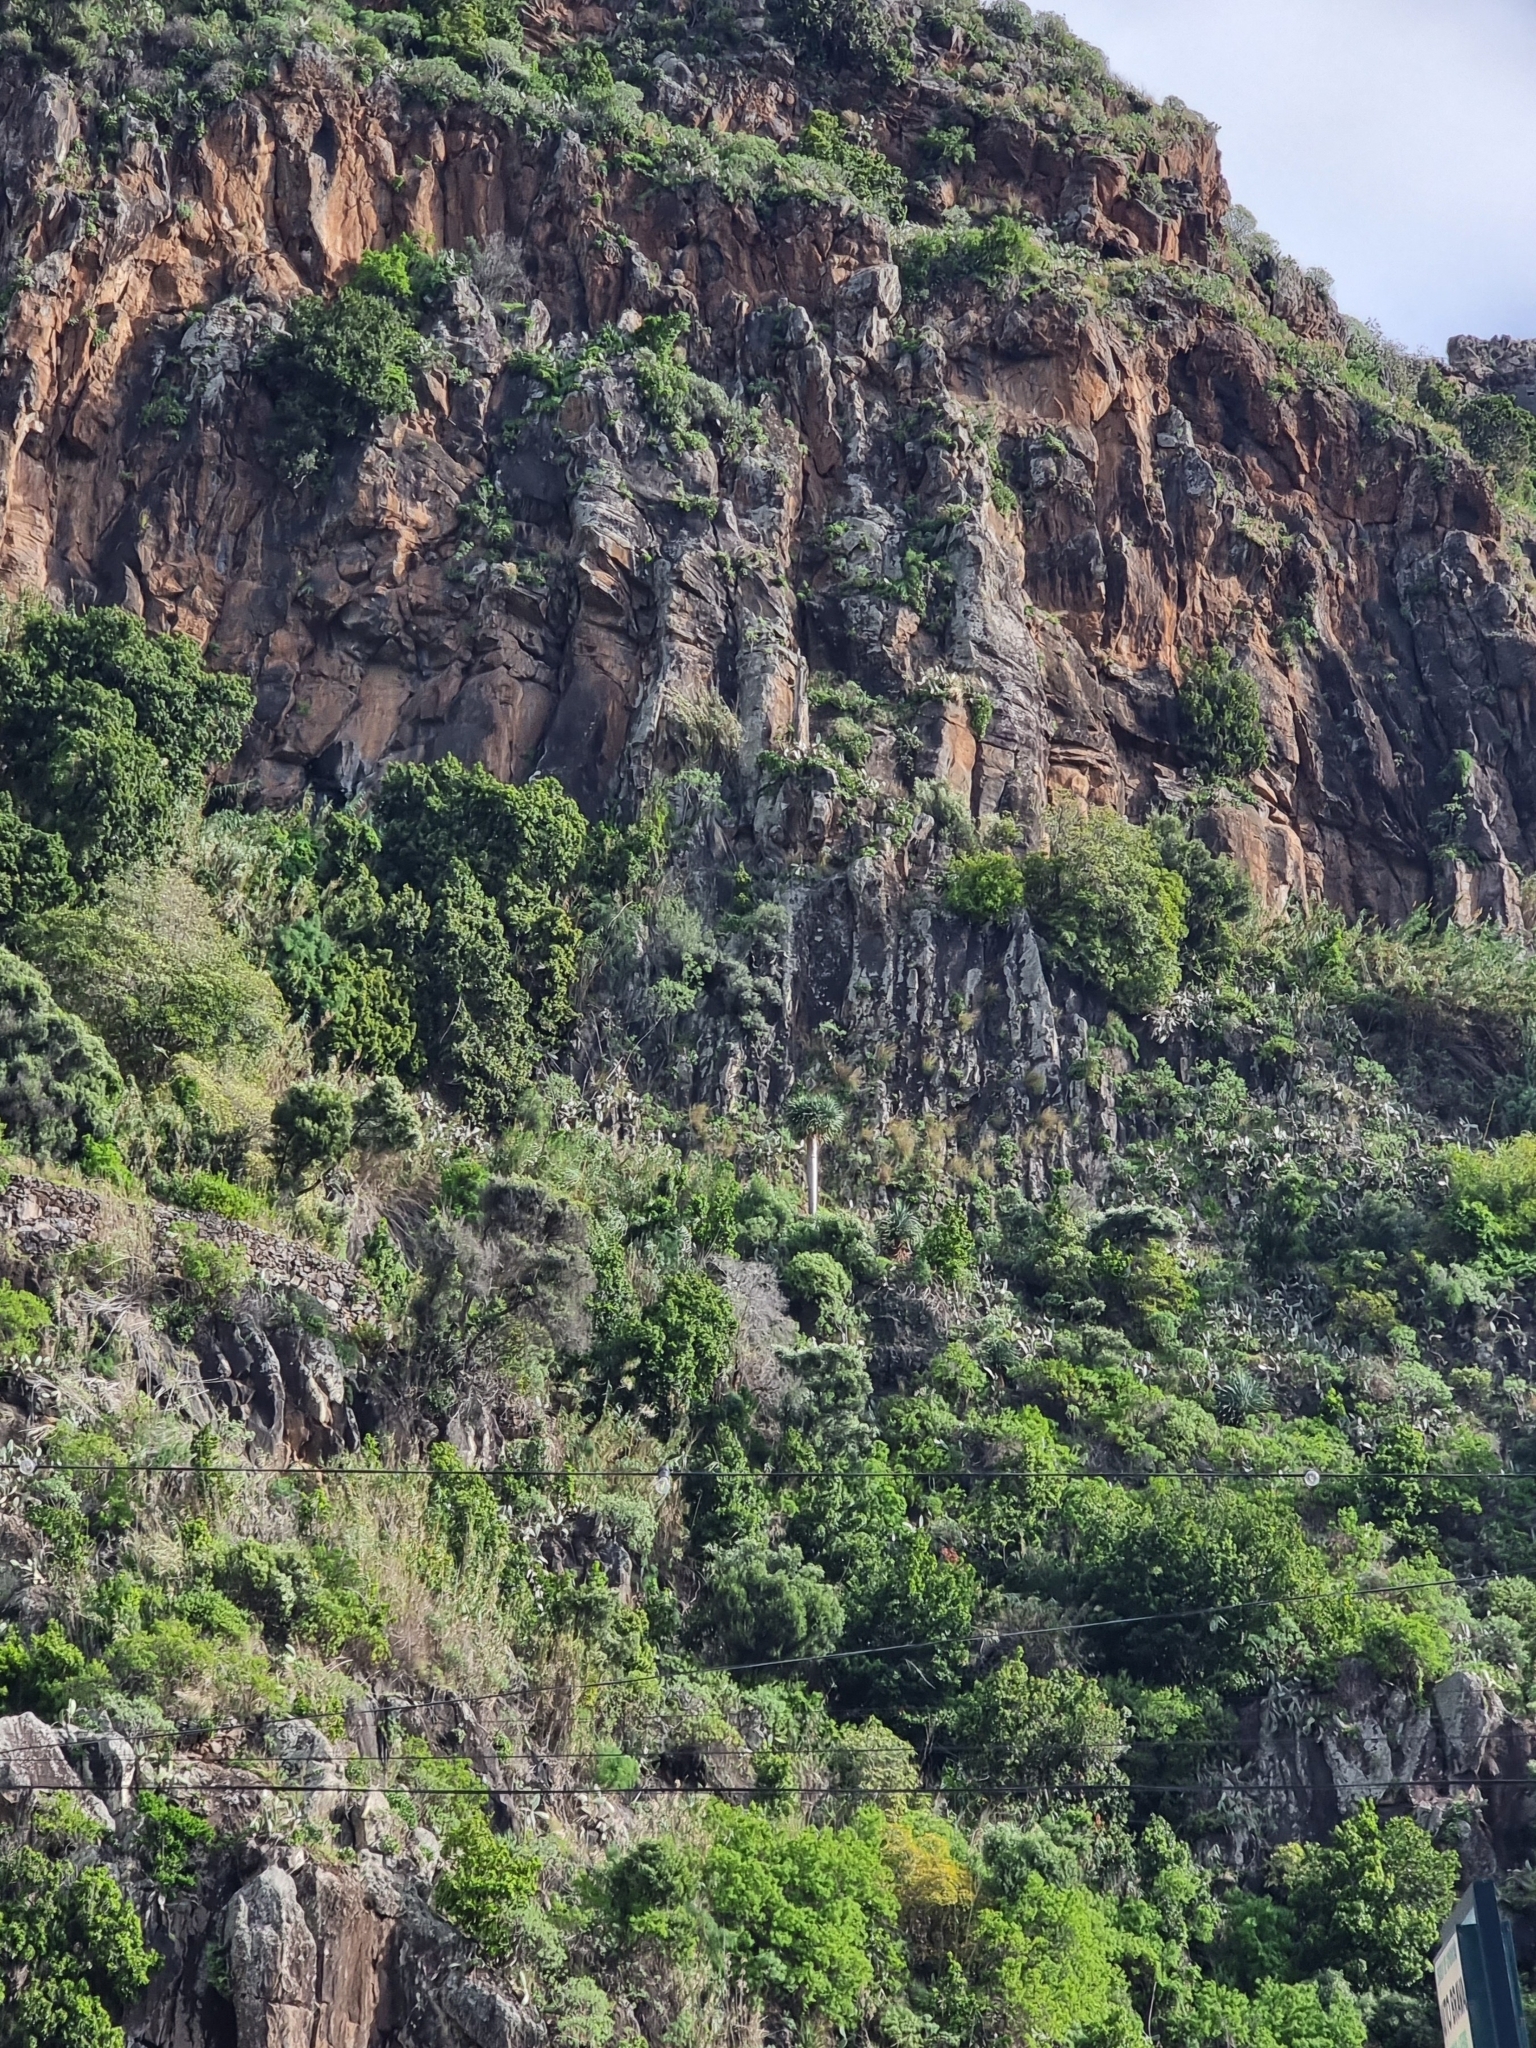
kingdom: Plantae
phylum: Tracheophyta
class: Liliopsida
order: Asparagales
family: Asparagaceae
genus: Dracaena
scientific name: Dracaena draco
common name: Canary island dragon tree
